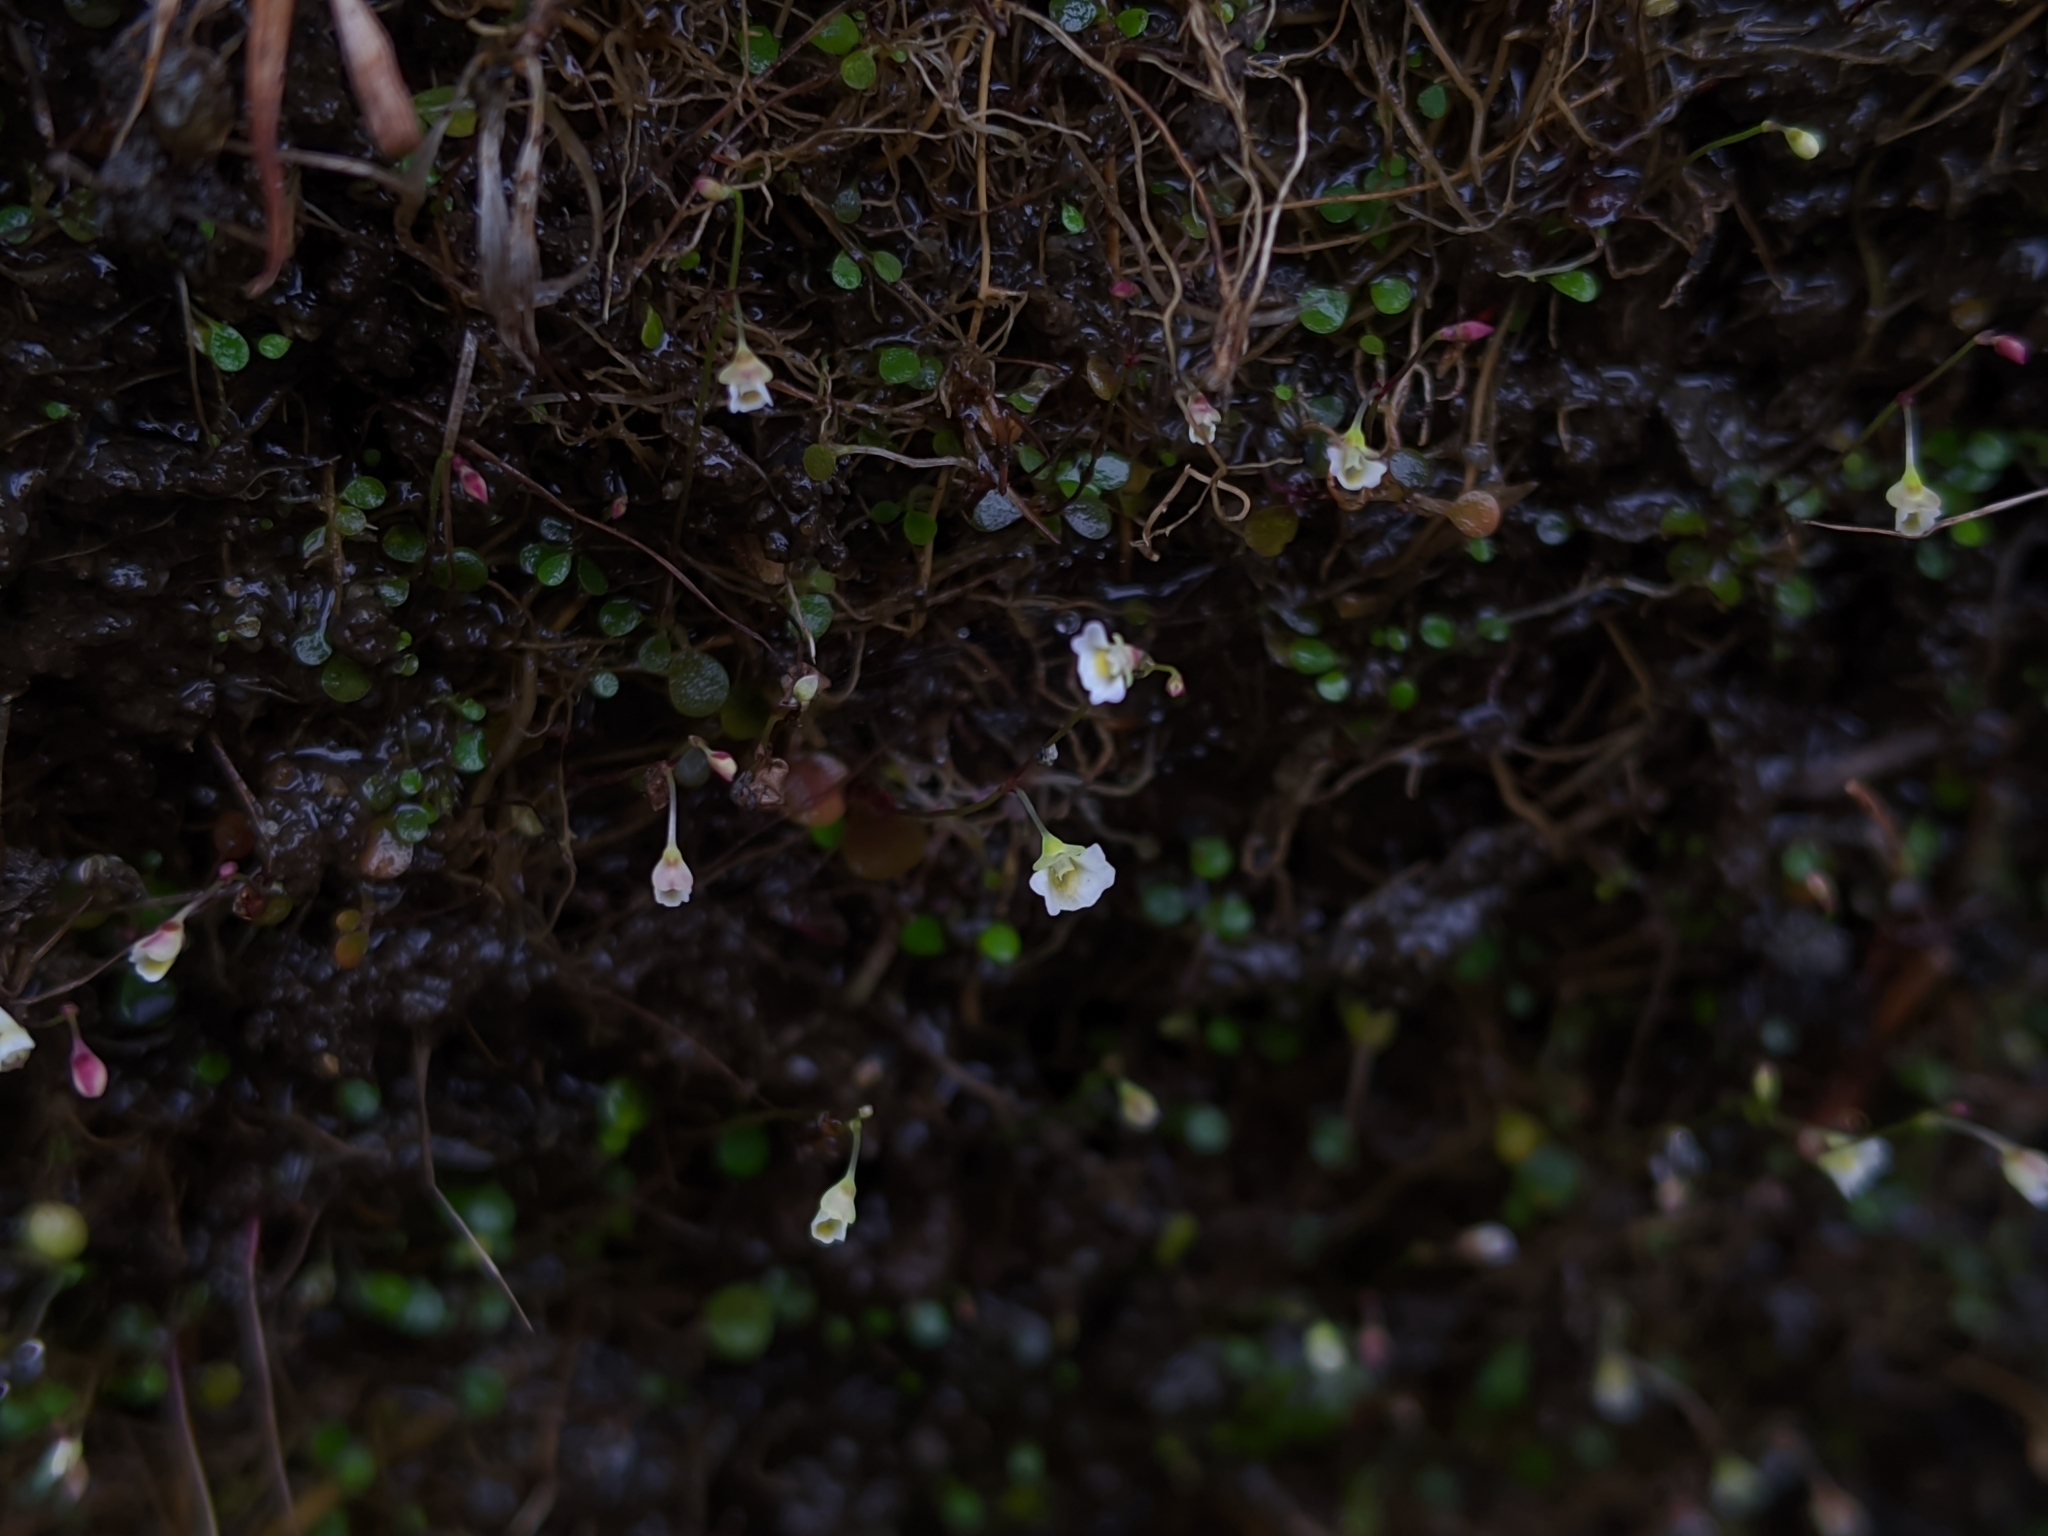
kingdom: Plantae
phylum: Tracheophyta
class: Magnoliopsida
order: Lamiales
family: Lentibulariaceae
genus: Utricularia
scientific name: Utricularia striatula
